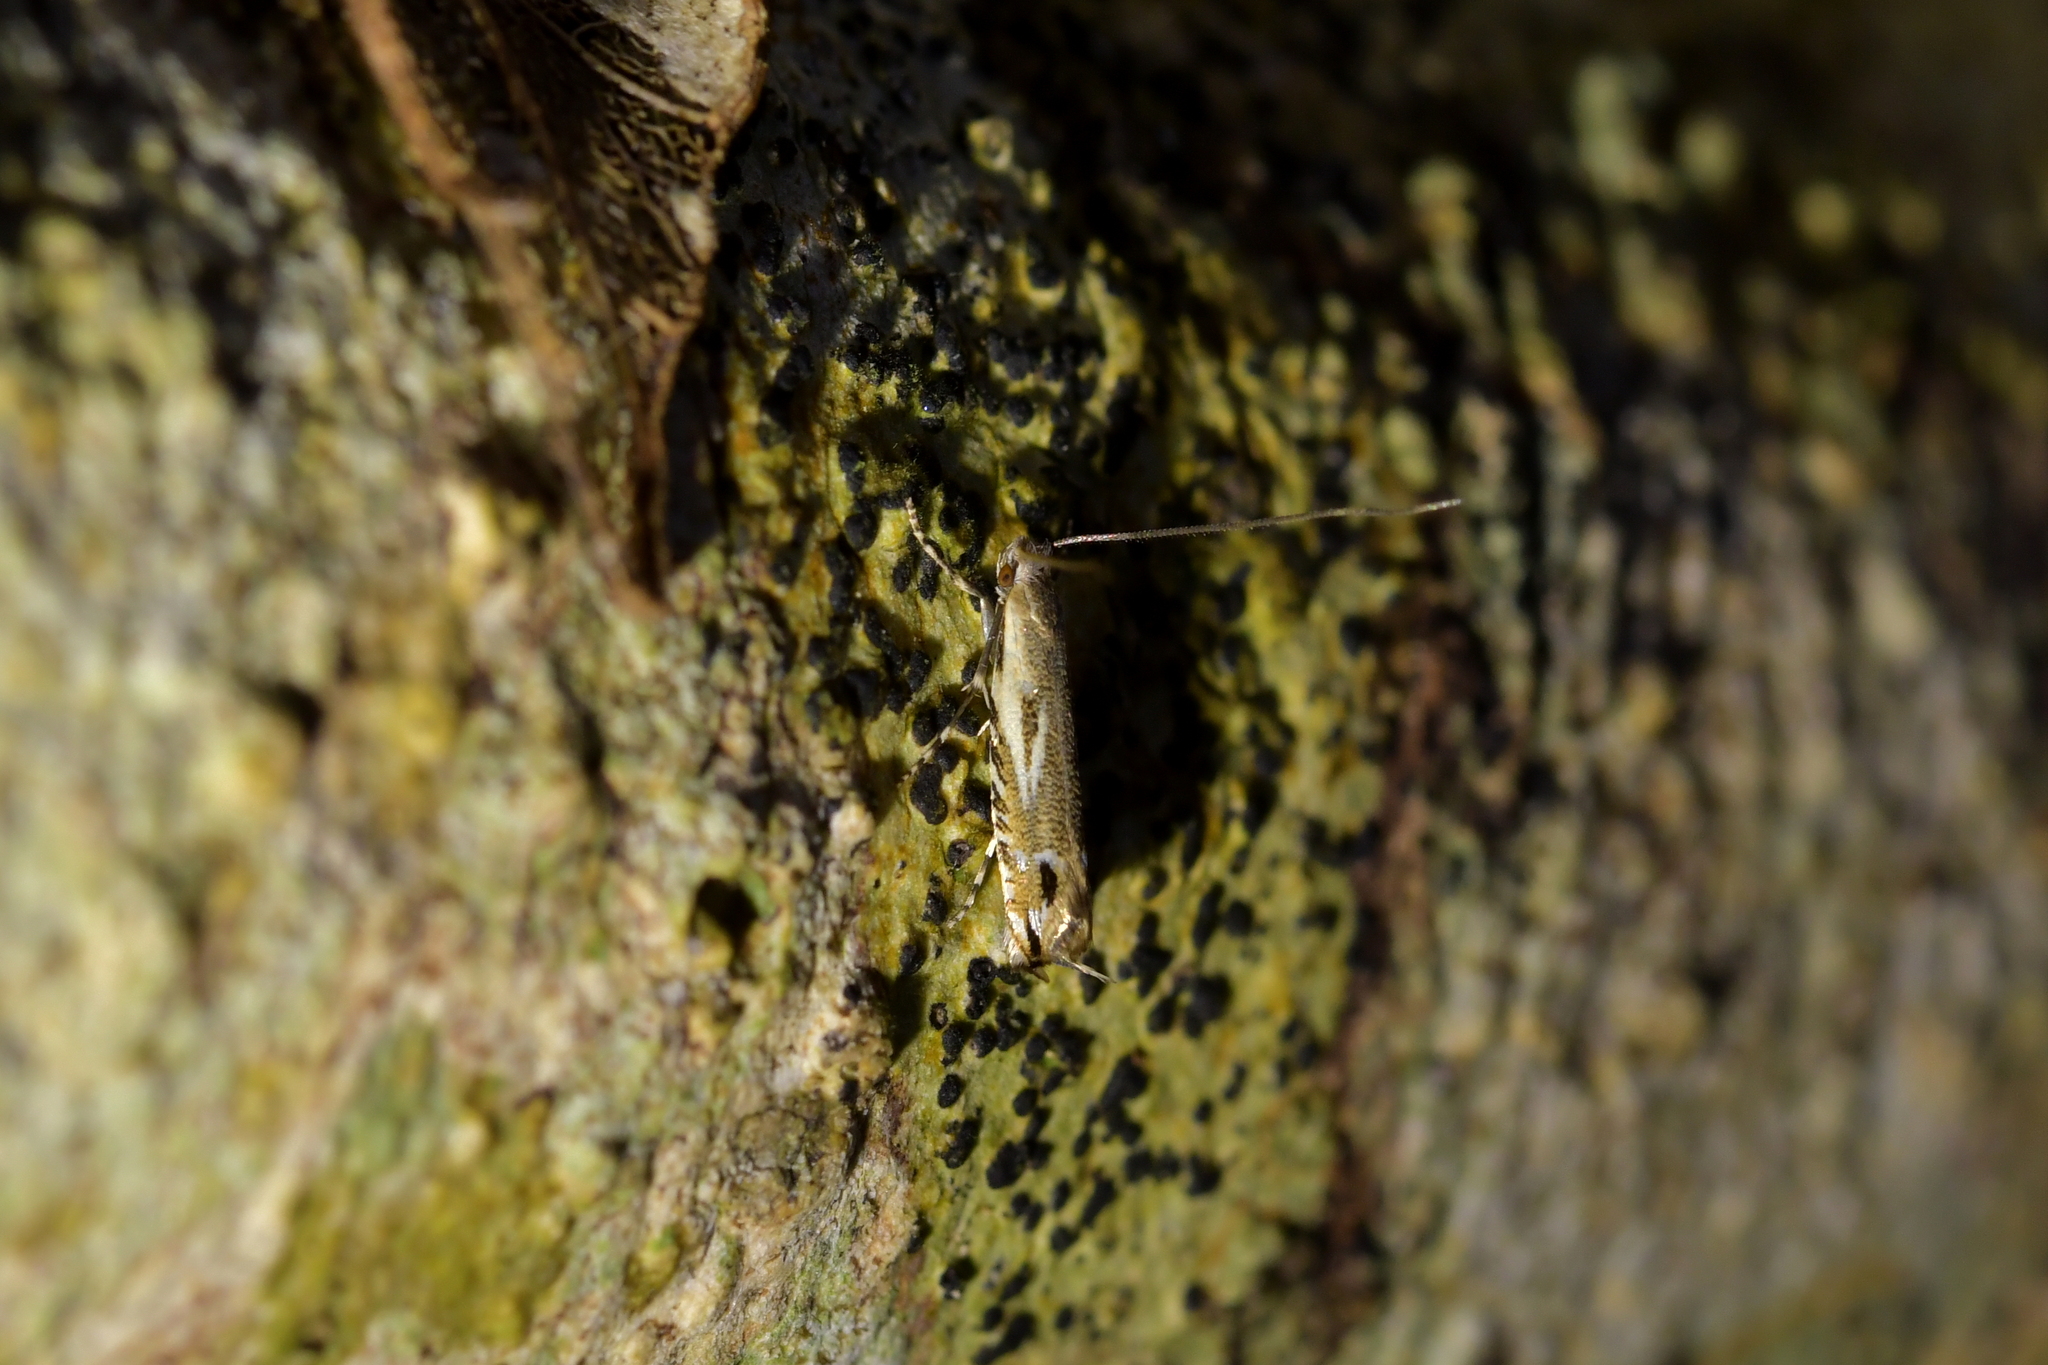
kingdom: Animalia
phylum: Arthropoda
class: Insecta
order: Lepidoptera
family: Tineidae
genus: Erechthias
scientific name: Erechthias decoranda
